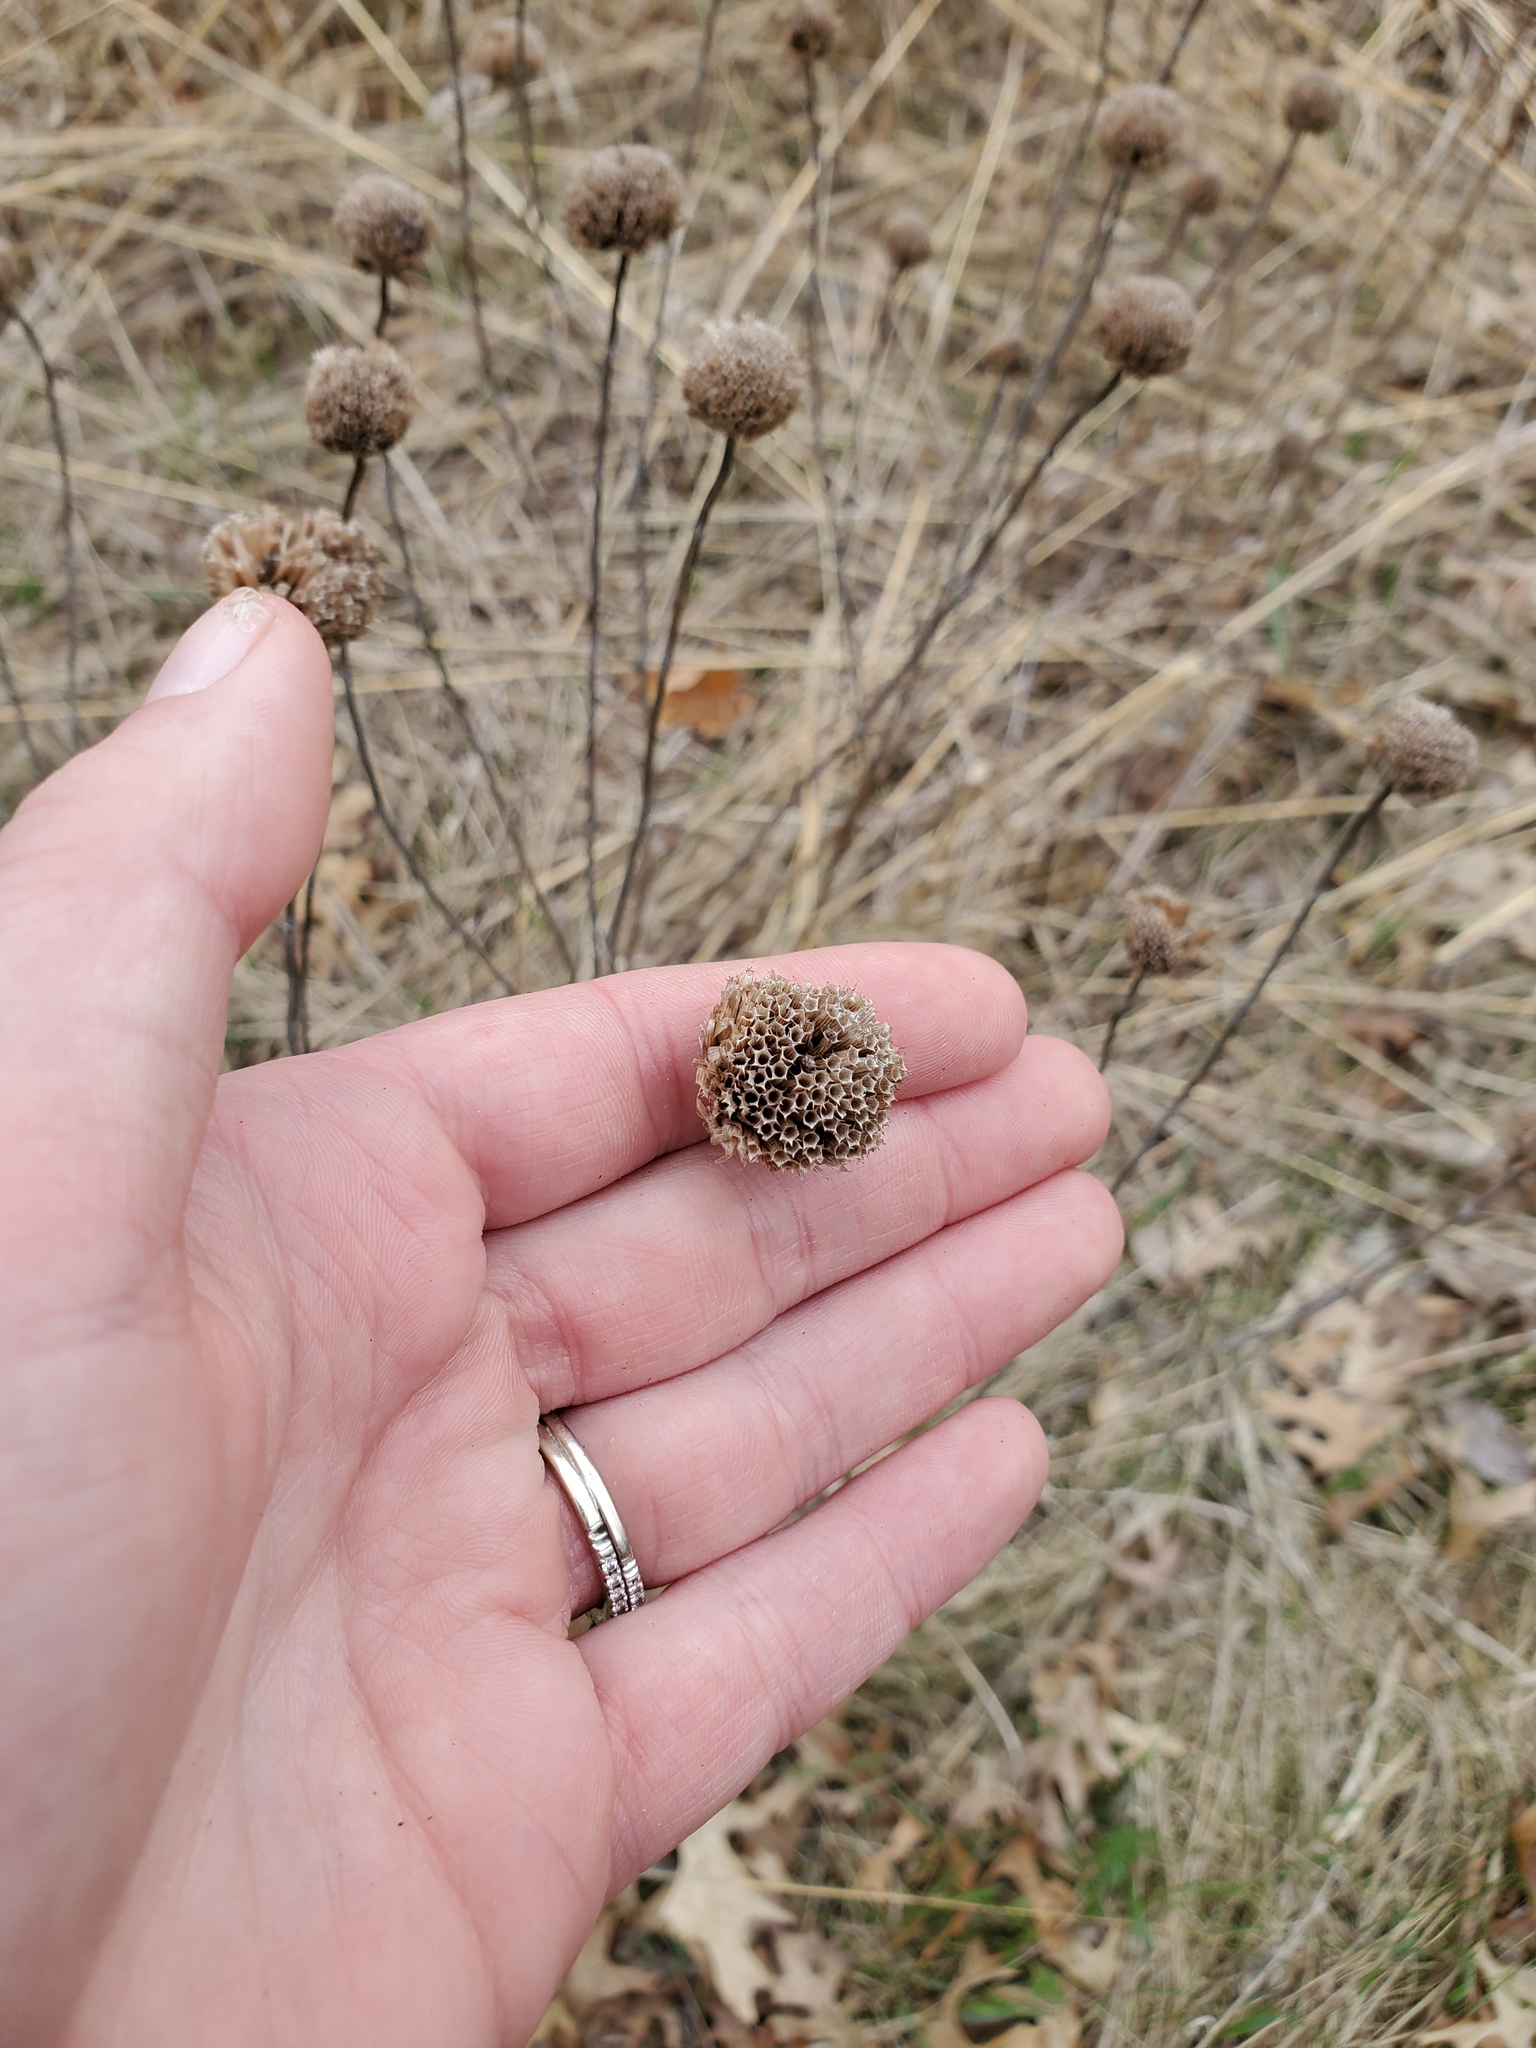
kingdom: Plantae
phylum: Tracheophyta
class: Magnoliopsida
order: Lamiales
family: Lamiaceae
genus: Monarda
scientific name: Monarda fistulosa
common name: Purple beebalm
